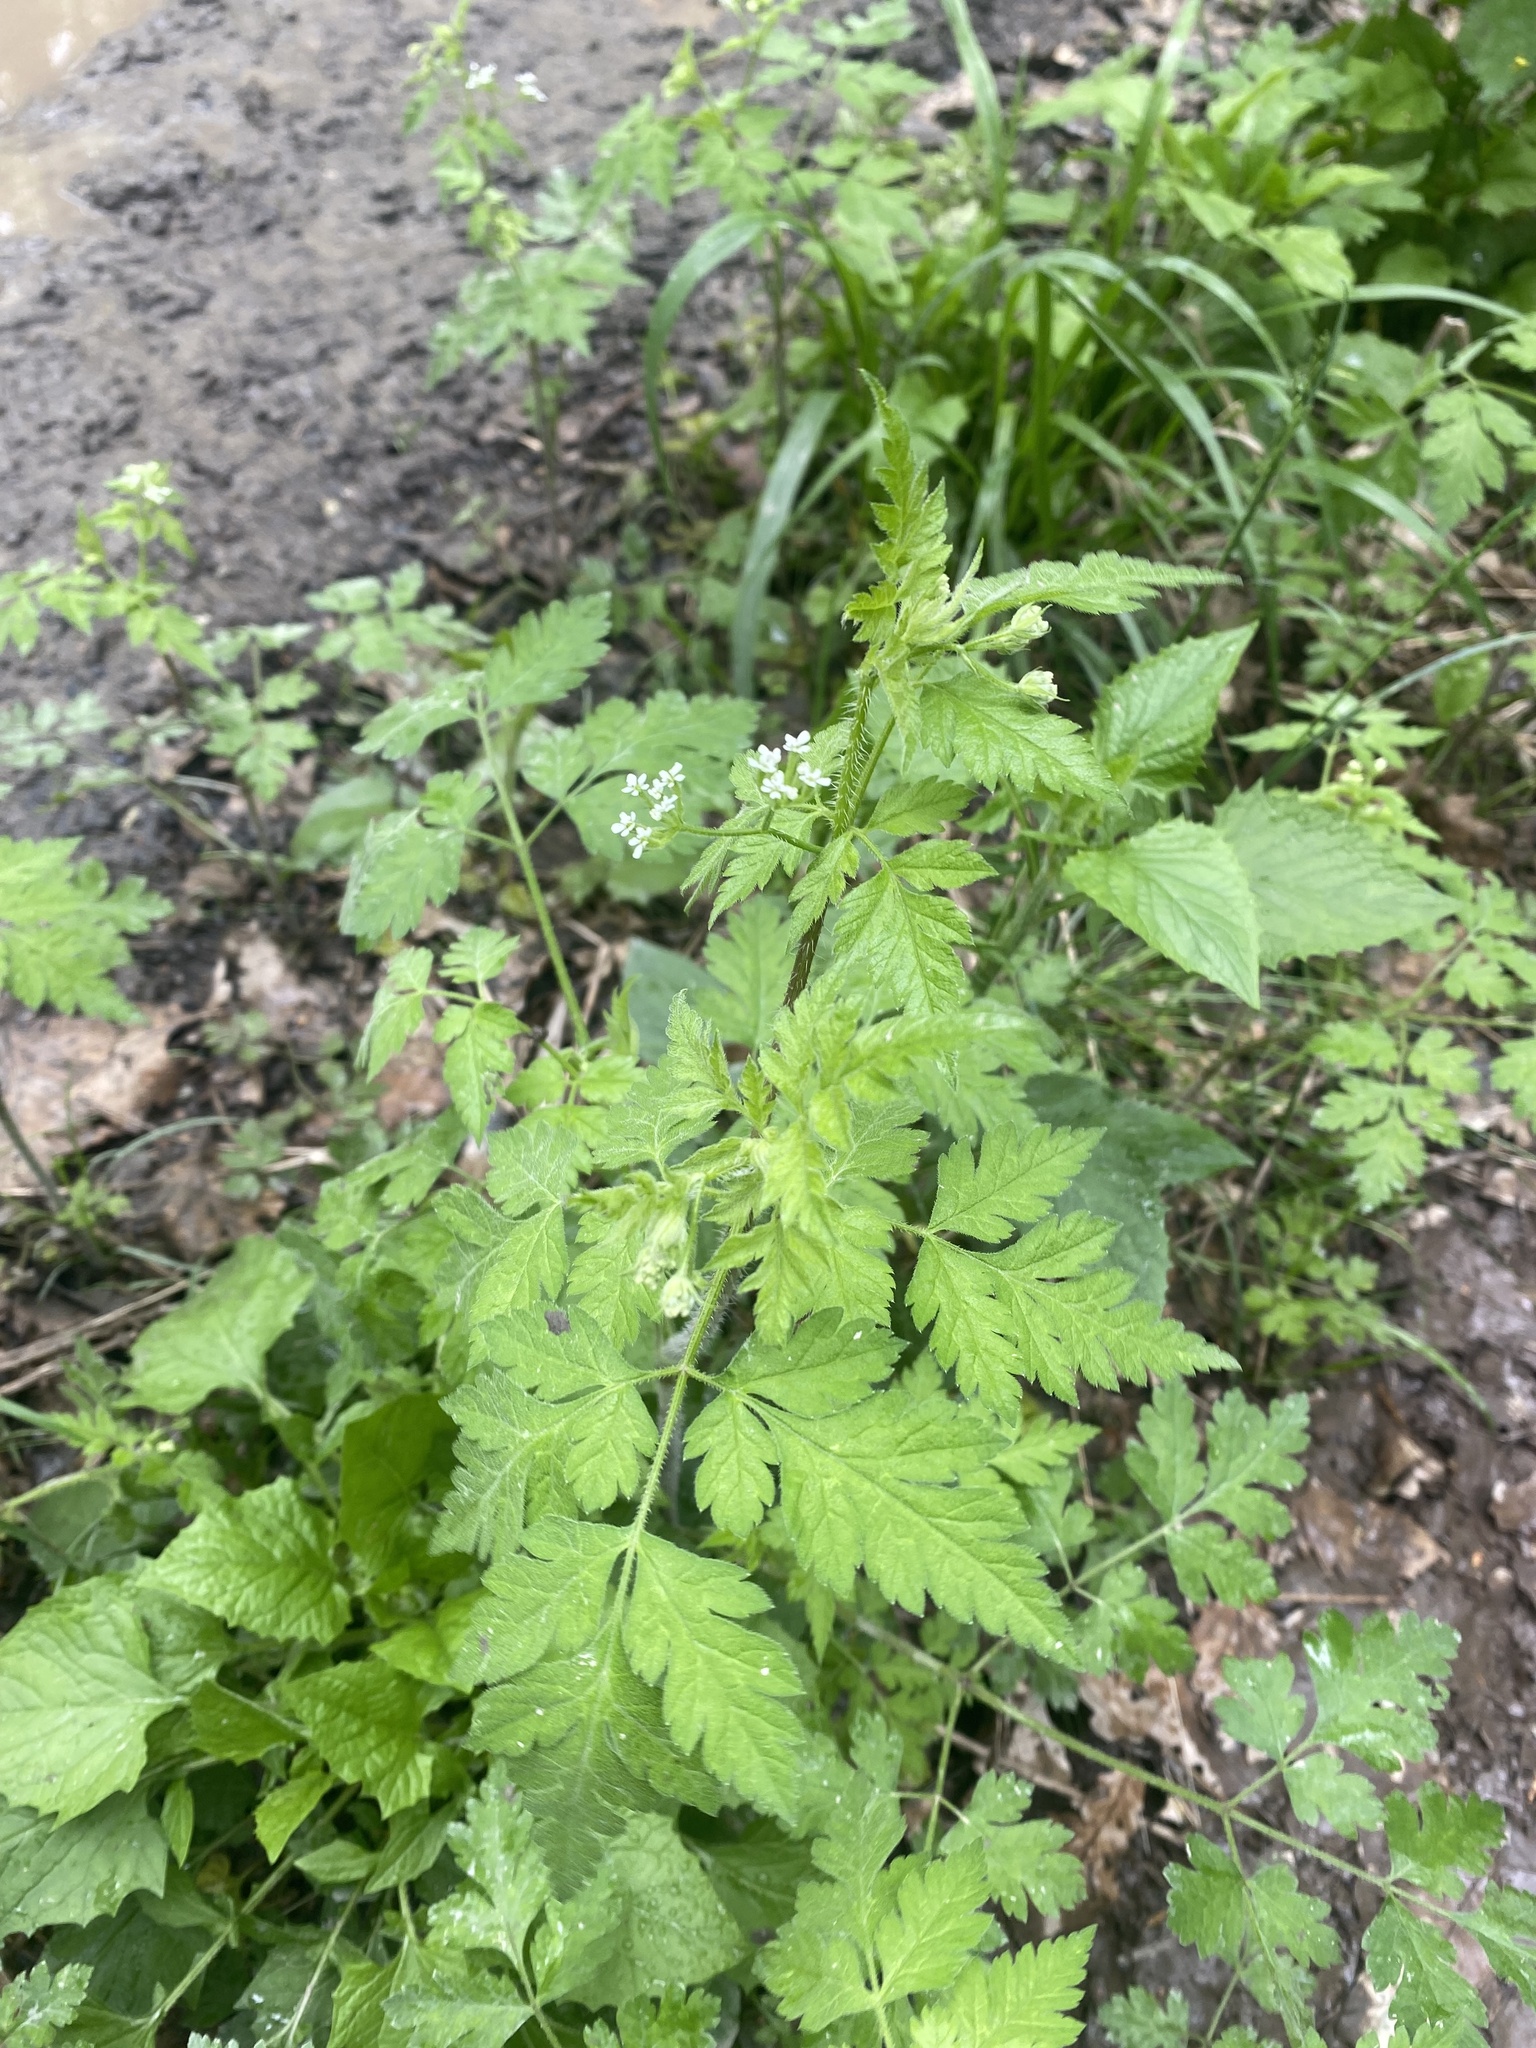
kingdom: Plantae
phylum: Tracheophyta
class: Magnoliopsida
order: Apiales
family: Apiaceae
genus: Chaerophyllum
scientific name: Chaerophyllum temulum
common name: Rough chervil
